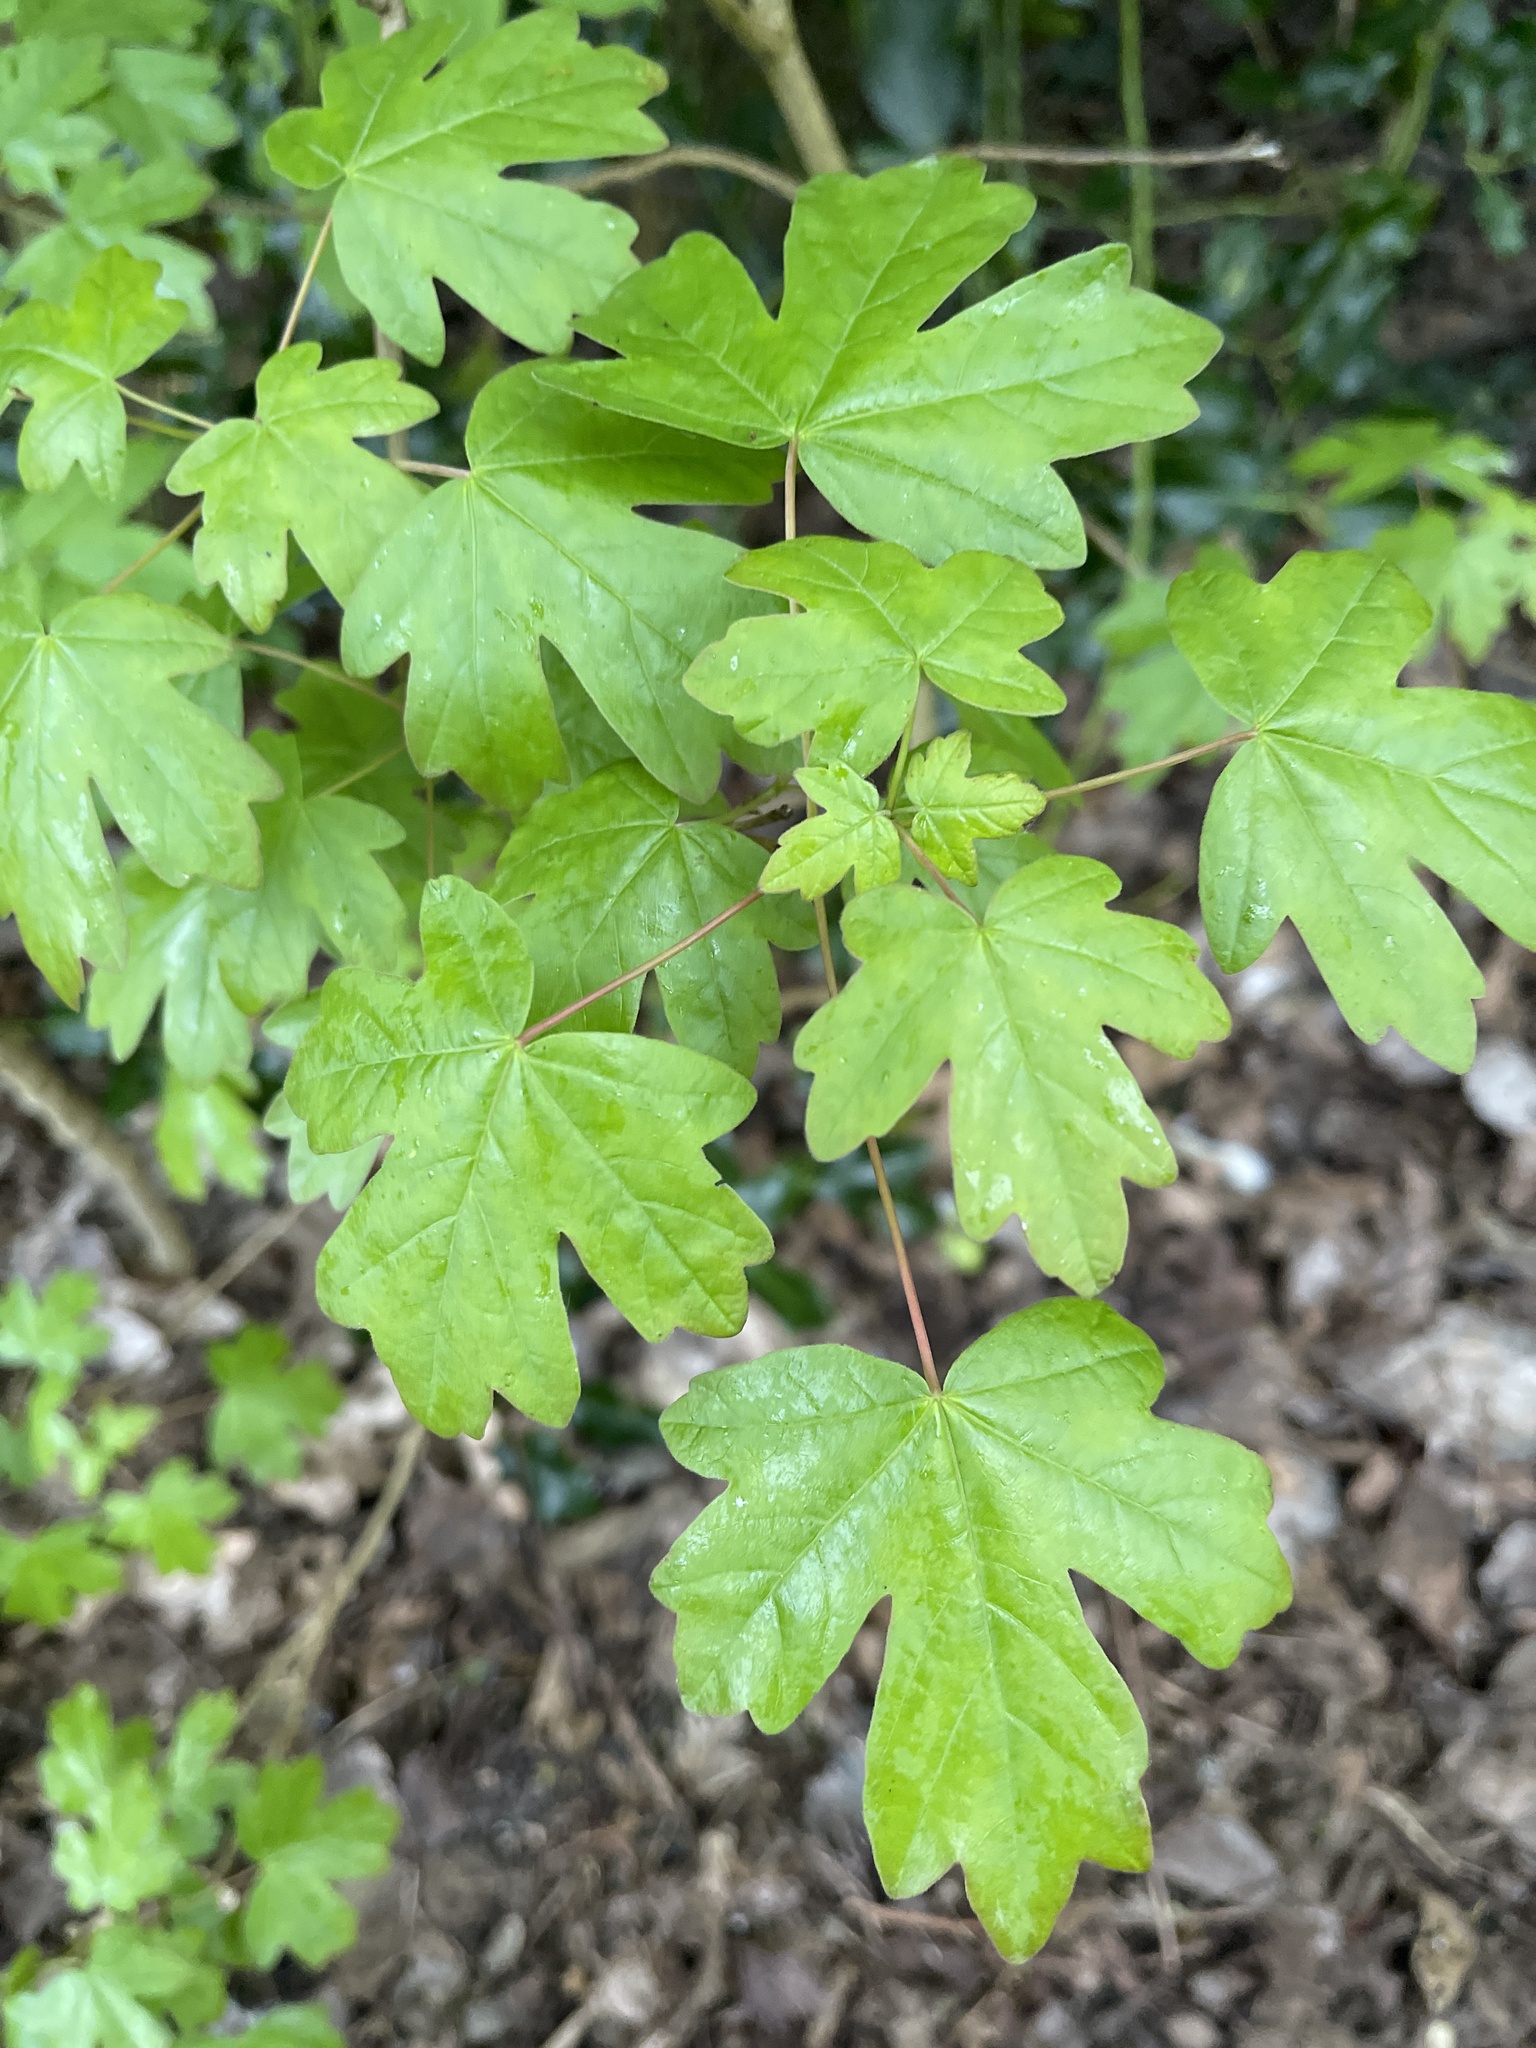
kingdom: Plantae
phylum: Tracheophyta
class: Magnoliopsida
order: Sapindales
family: Sapindaceae
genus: Acer
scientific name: Acer campestre
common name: Field maple
